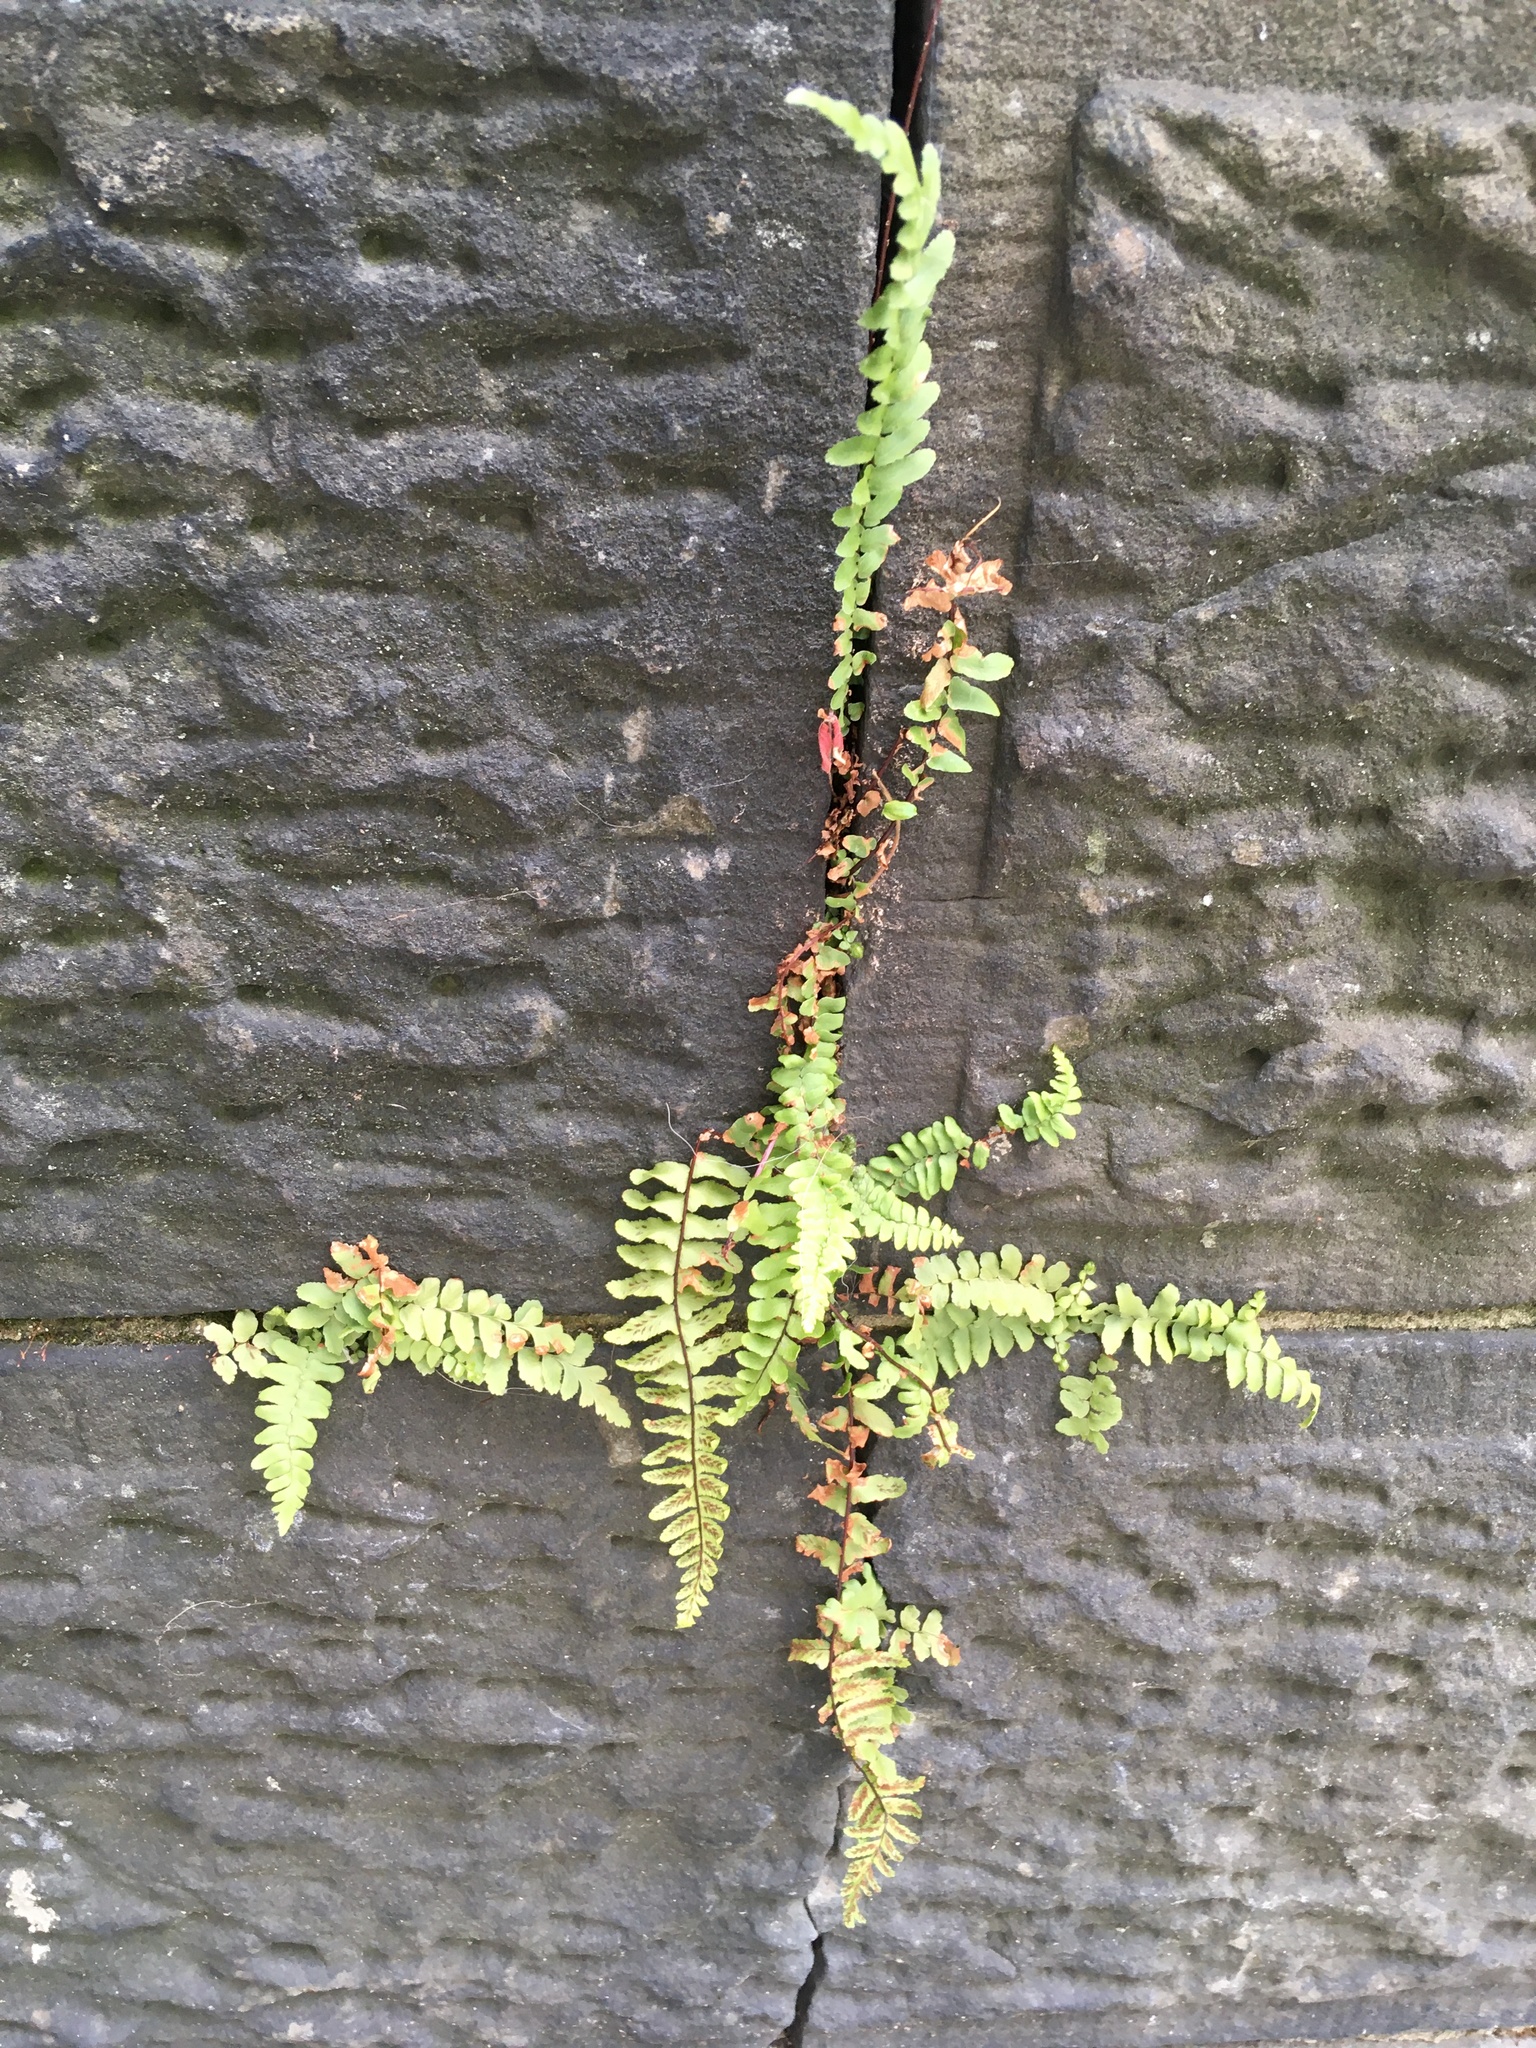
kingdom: Plantae
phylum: Tracheophyta
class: Polypodiopsida
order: Polypodiales
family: Aspleniaceae
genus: Asplenium
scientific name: Asplenium platyneuron
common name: Ebony spleenwort
